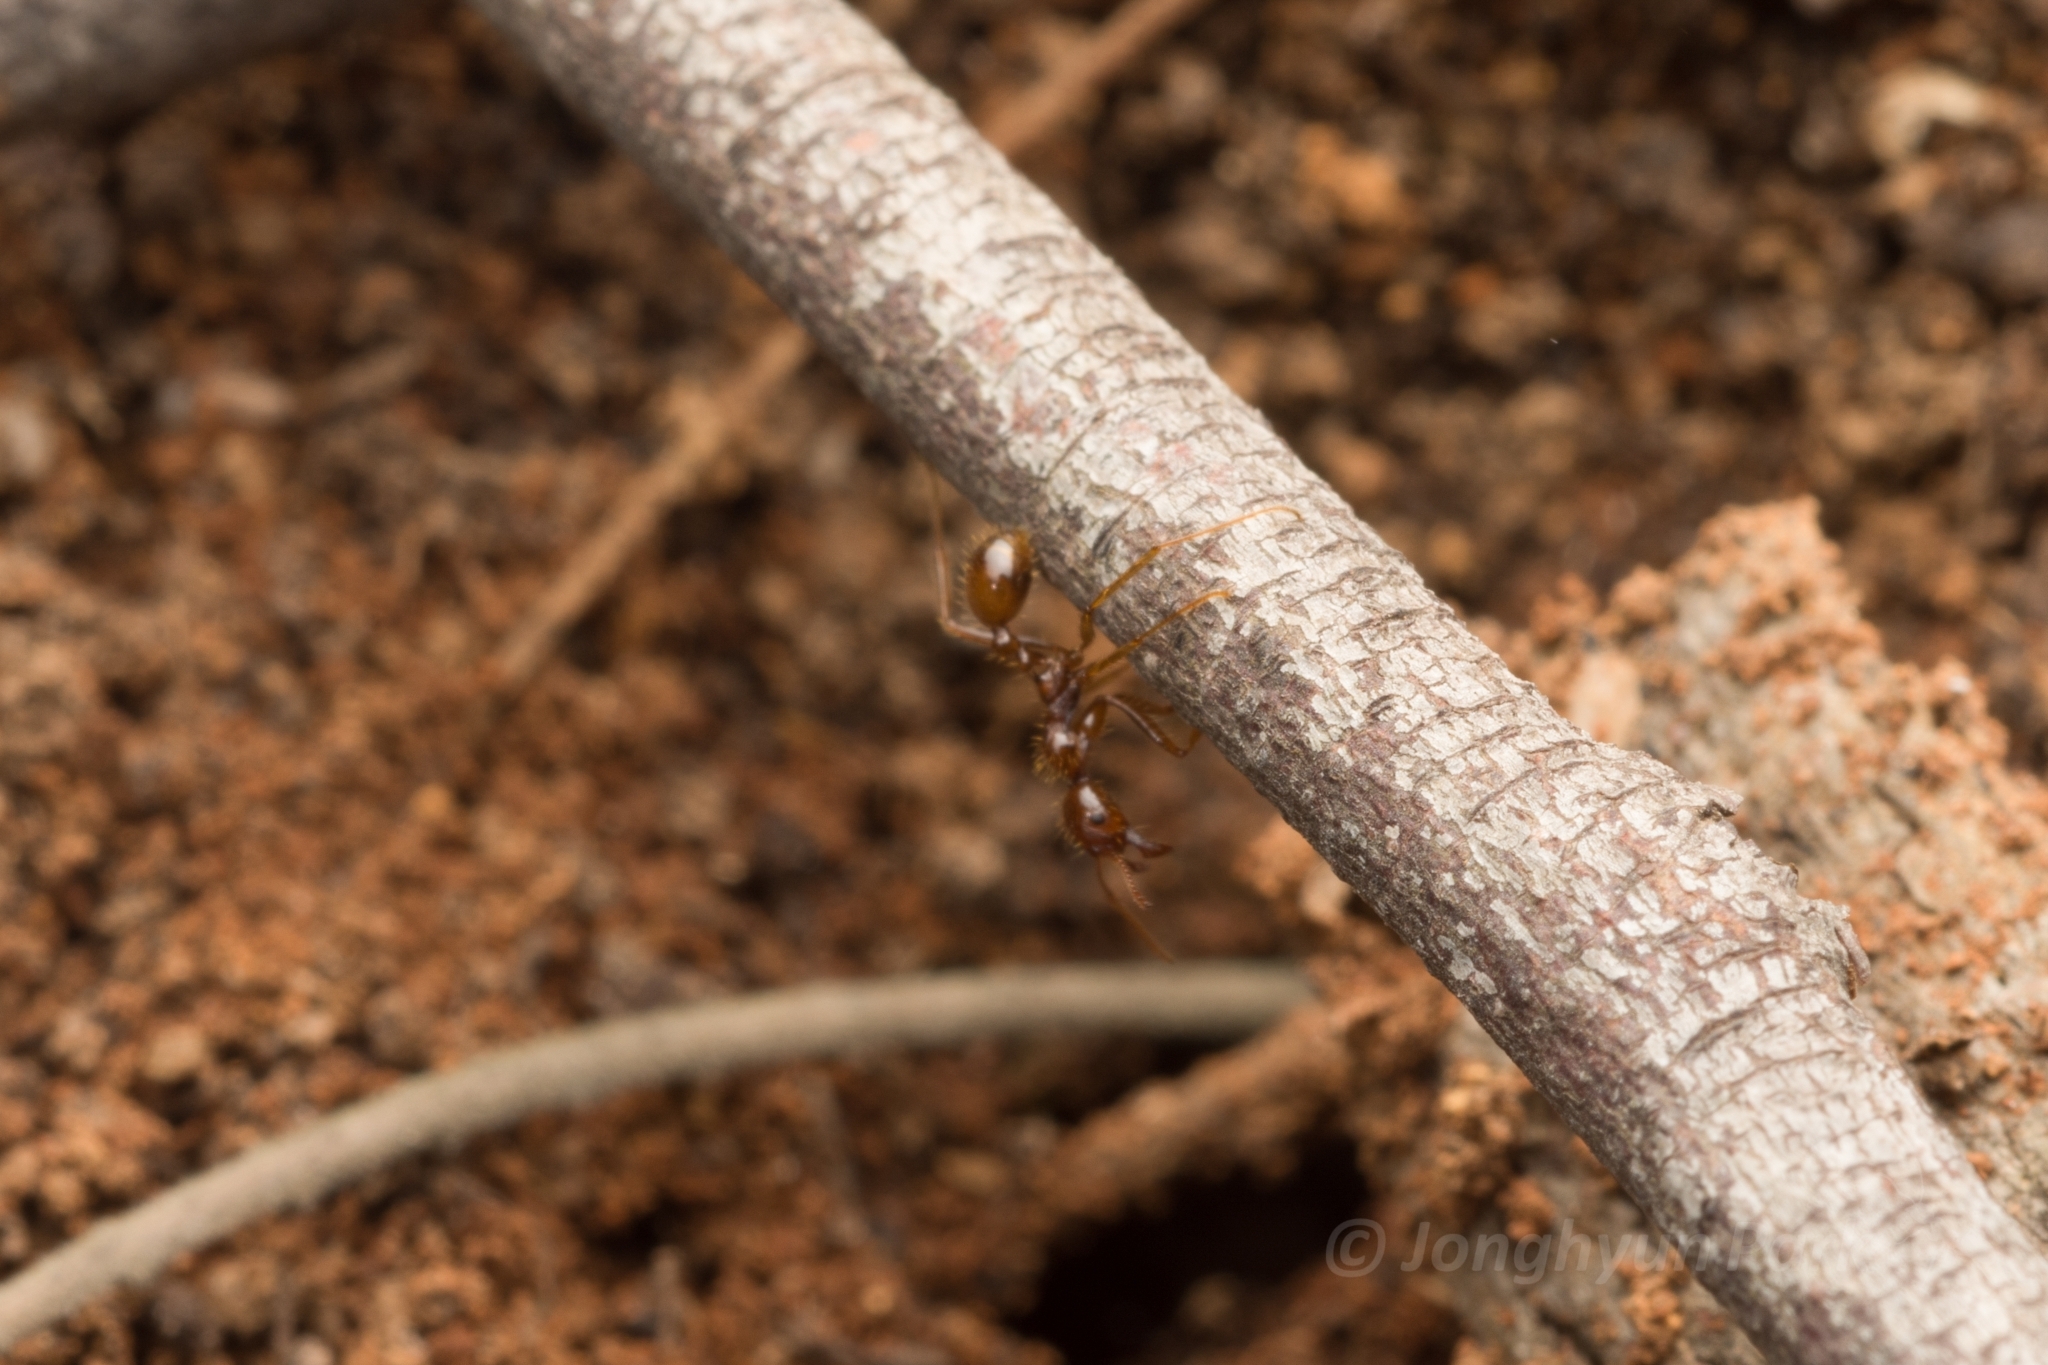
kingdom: Animalia
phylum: Arthropoda
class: Insecta
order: Hymenoptera
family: Formicidae
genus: Aphaenogaster
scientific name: Aphaenogaster longiceps
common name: Funnel ant
